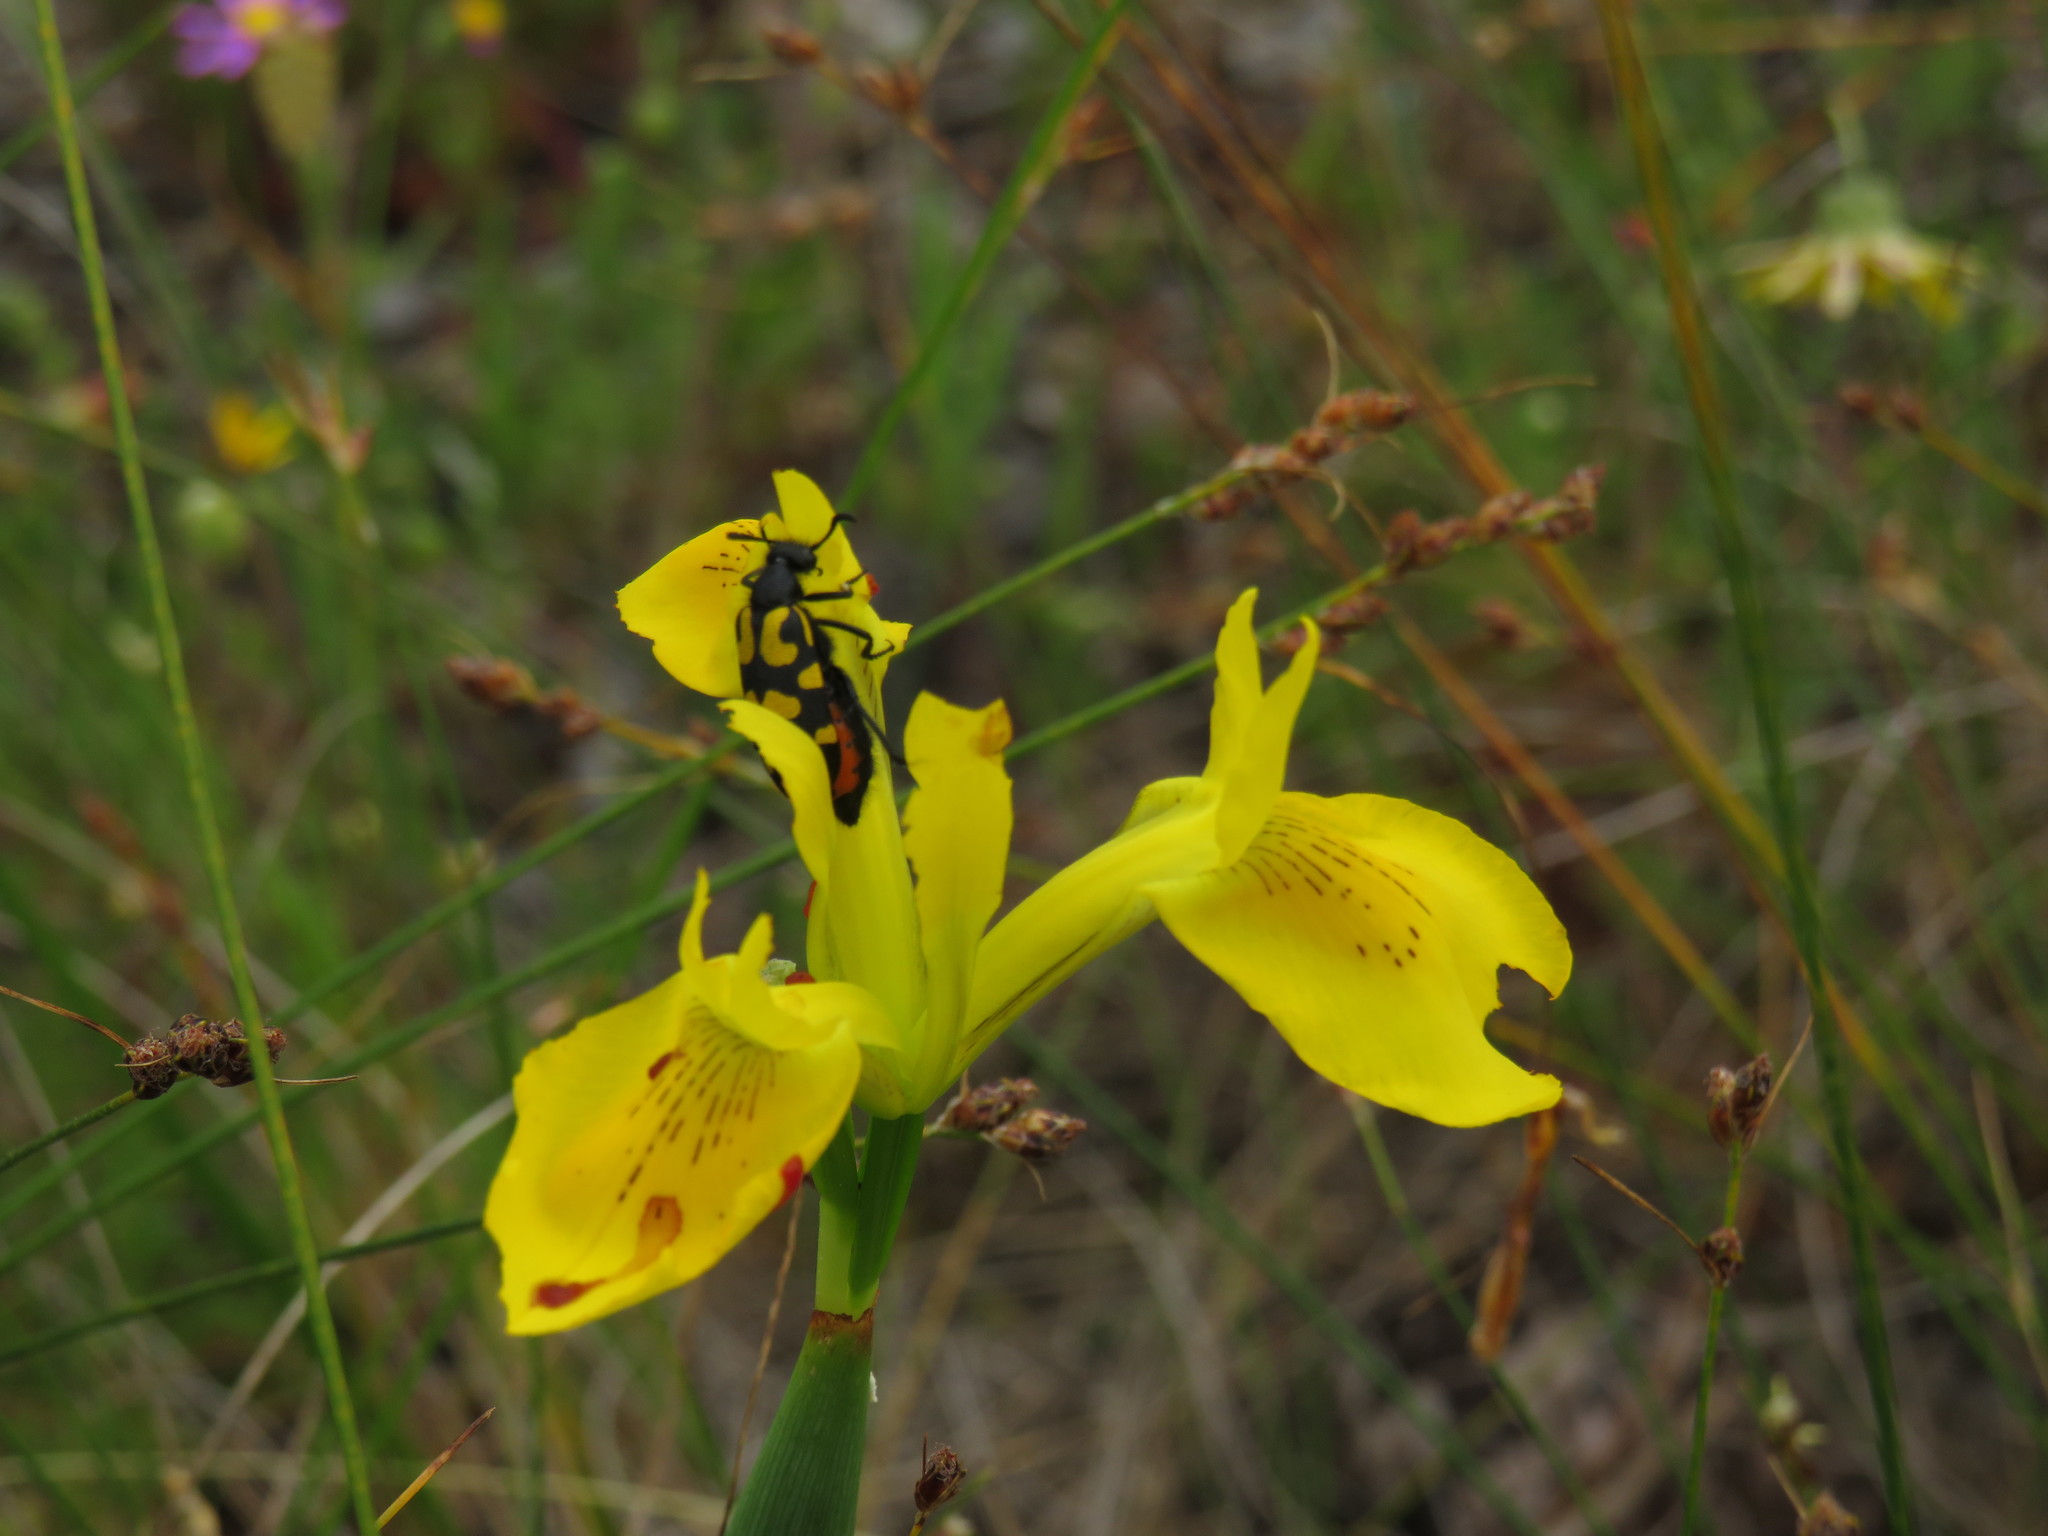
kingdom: Animalia
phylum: Arthropoda
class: Insecta
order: Coleoptera
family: Meloidae
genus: Ceroctis
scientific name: Ceroctis capensis
